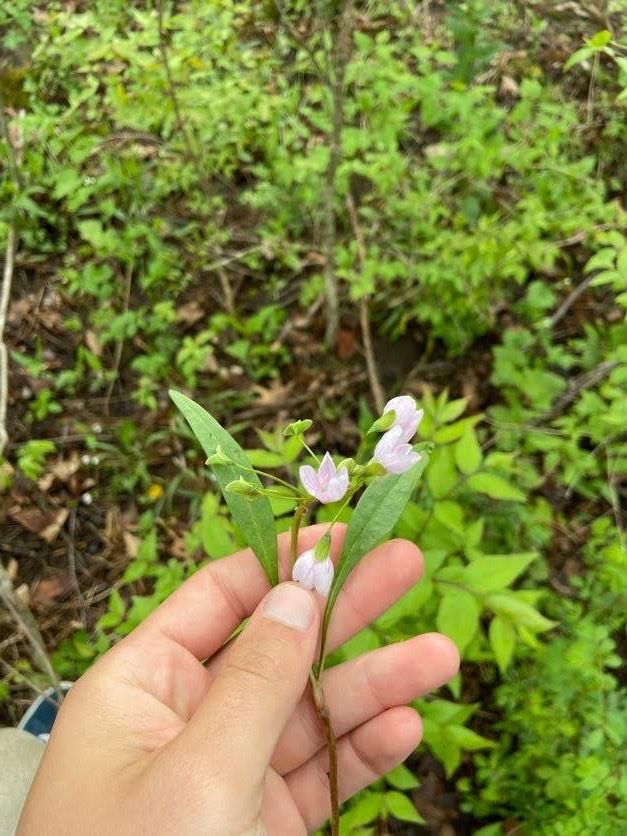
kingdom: Plantae
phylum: Tracheophyta
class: Magnoliopsida
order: Caryophyllales
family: Montiaceae
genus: Claytonia
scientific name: Claytonia virginica
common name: Virginia springbeauty
